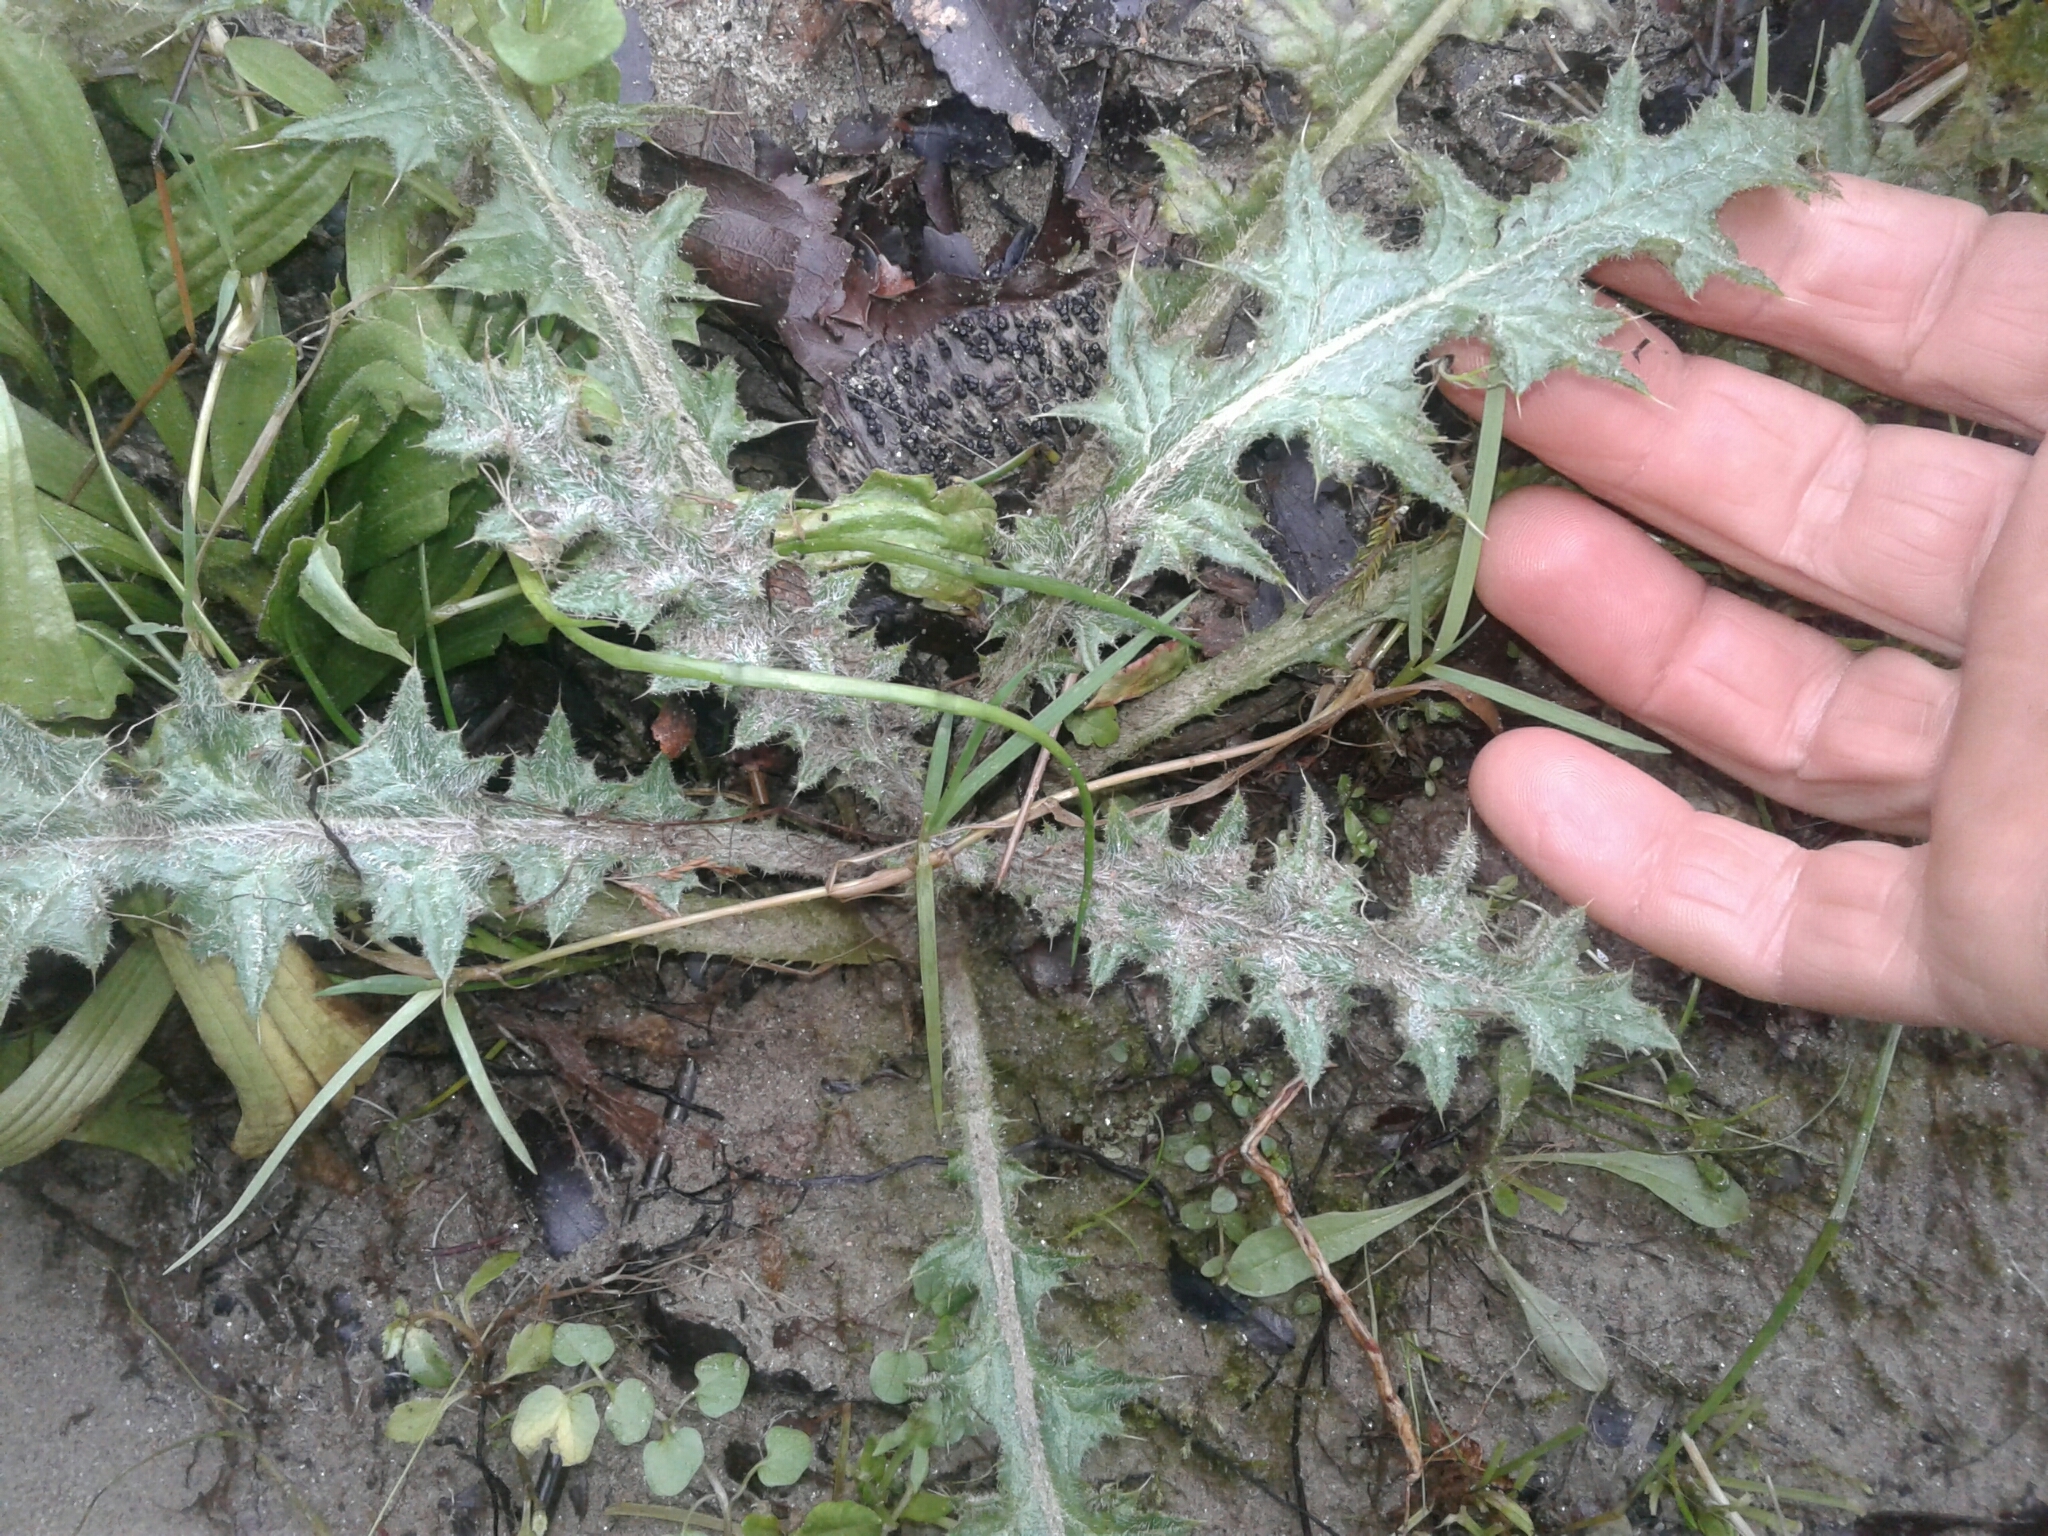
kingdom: Plantae
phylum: Tracheophyta
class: Magnoliopsida
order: Asterales
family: Asteraceae
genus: Cirsium
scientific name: Cirsium vulgare
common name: Bull thistle
